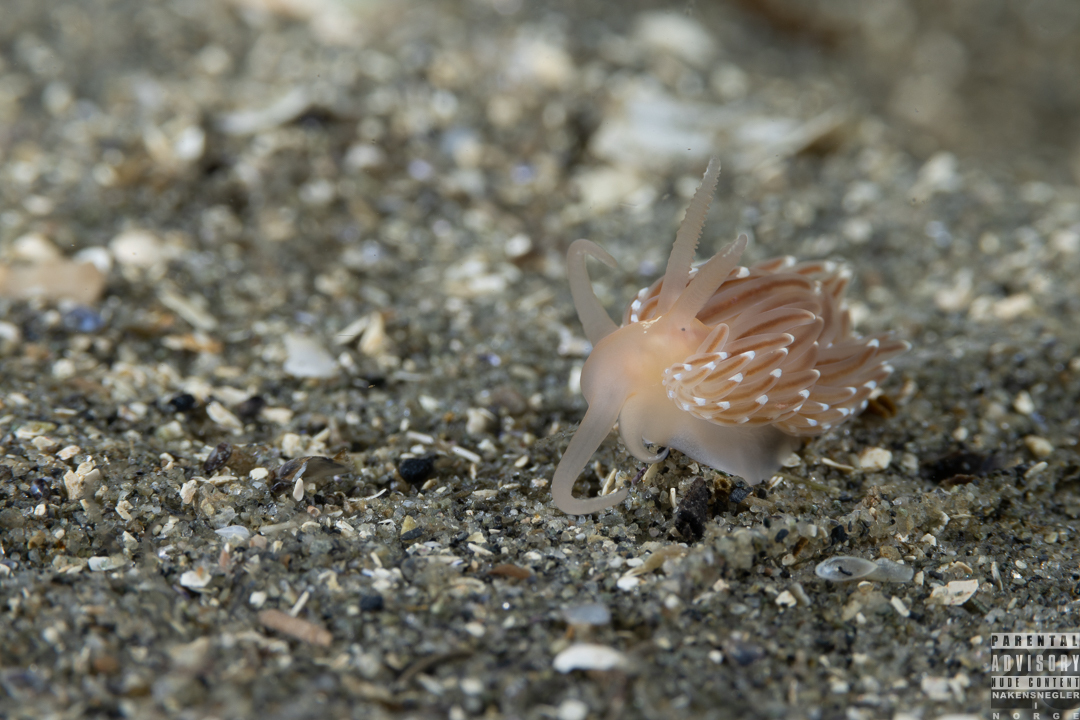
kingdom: Animalia
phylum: Mollusca
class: Gastropoda
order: Nudibranchia
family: Facelinidae
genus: Facelina
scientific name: Facelina bostoniensis
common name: Boston facelina
